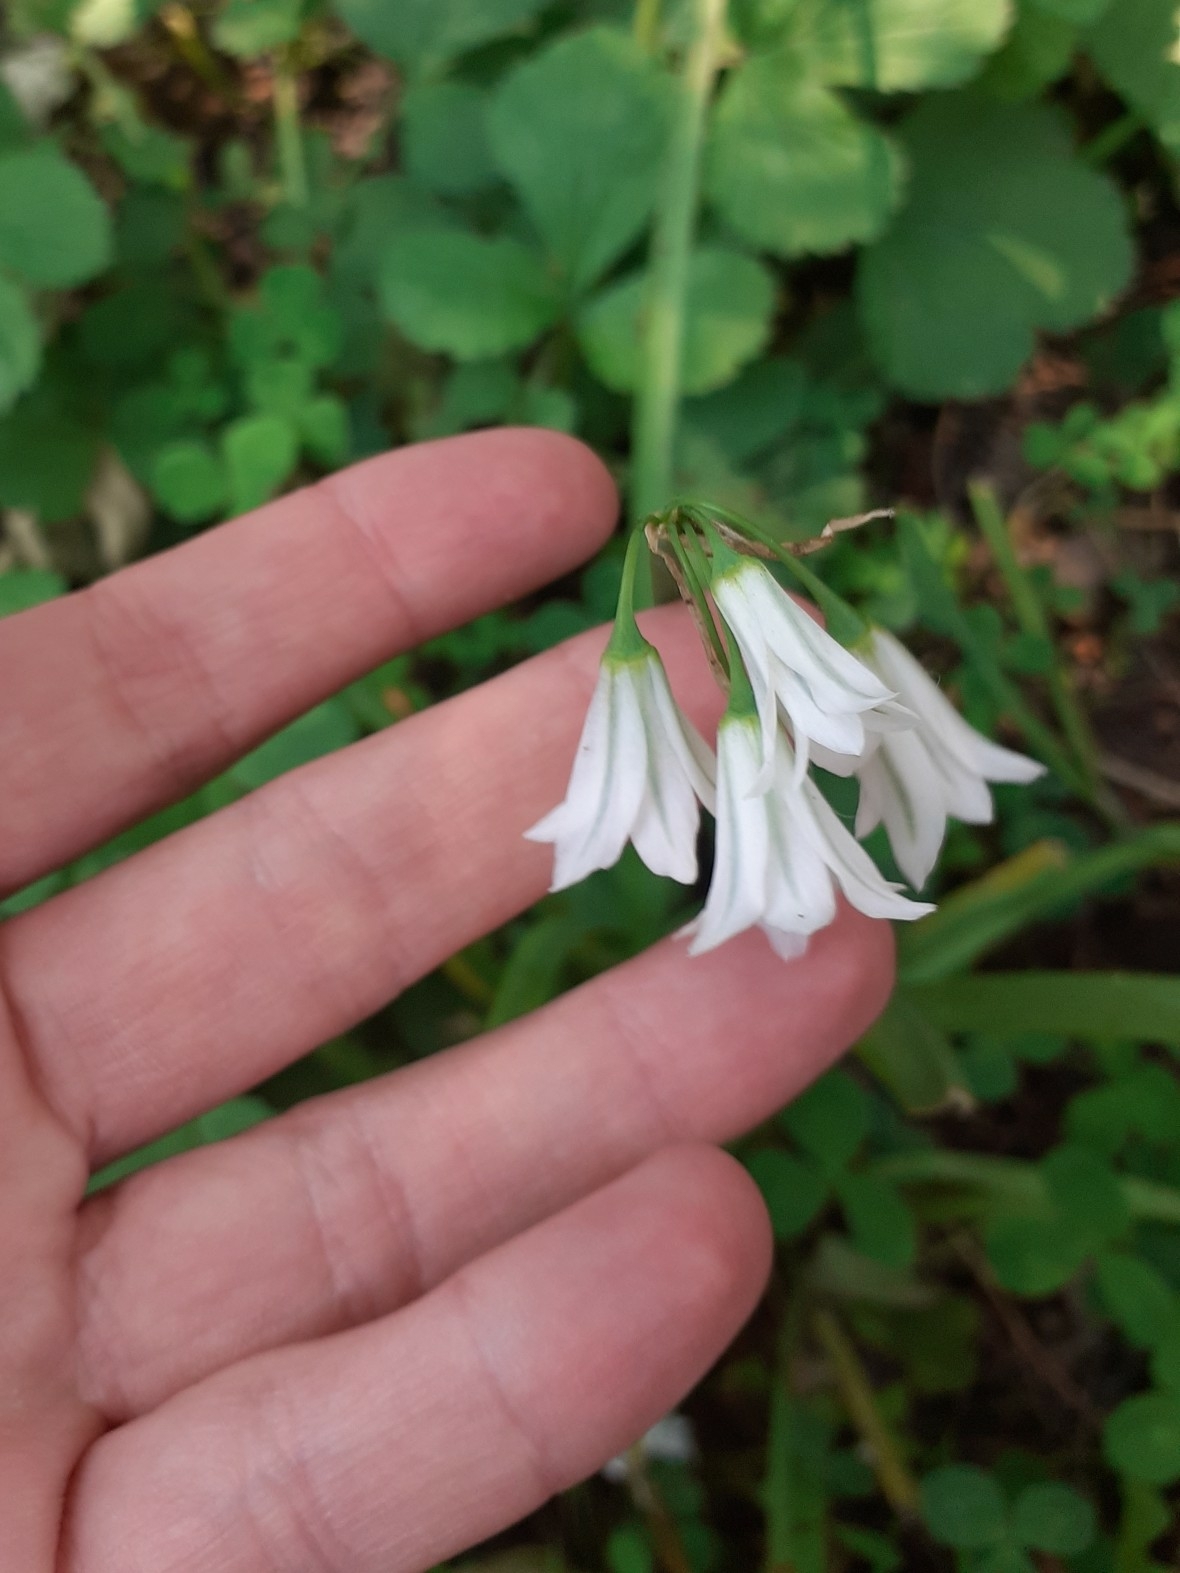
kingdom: Plantae
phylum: Tracheophyta
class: Liliopsida
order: Asparagales
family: Amaryllidaceae
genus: Allium
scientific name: Allium triquetrum
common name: Three-cornered garlic
